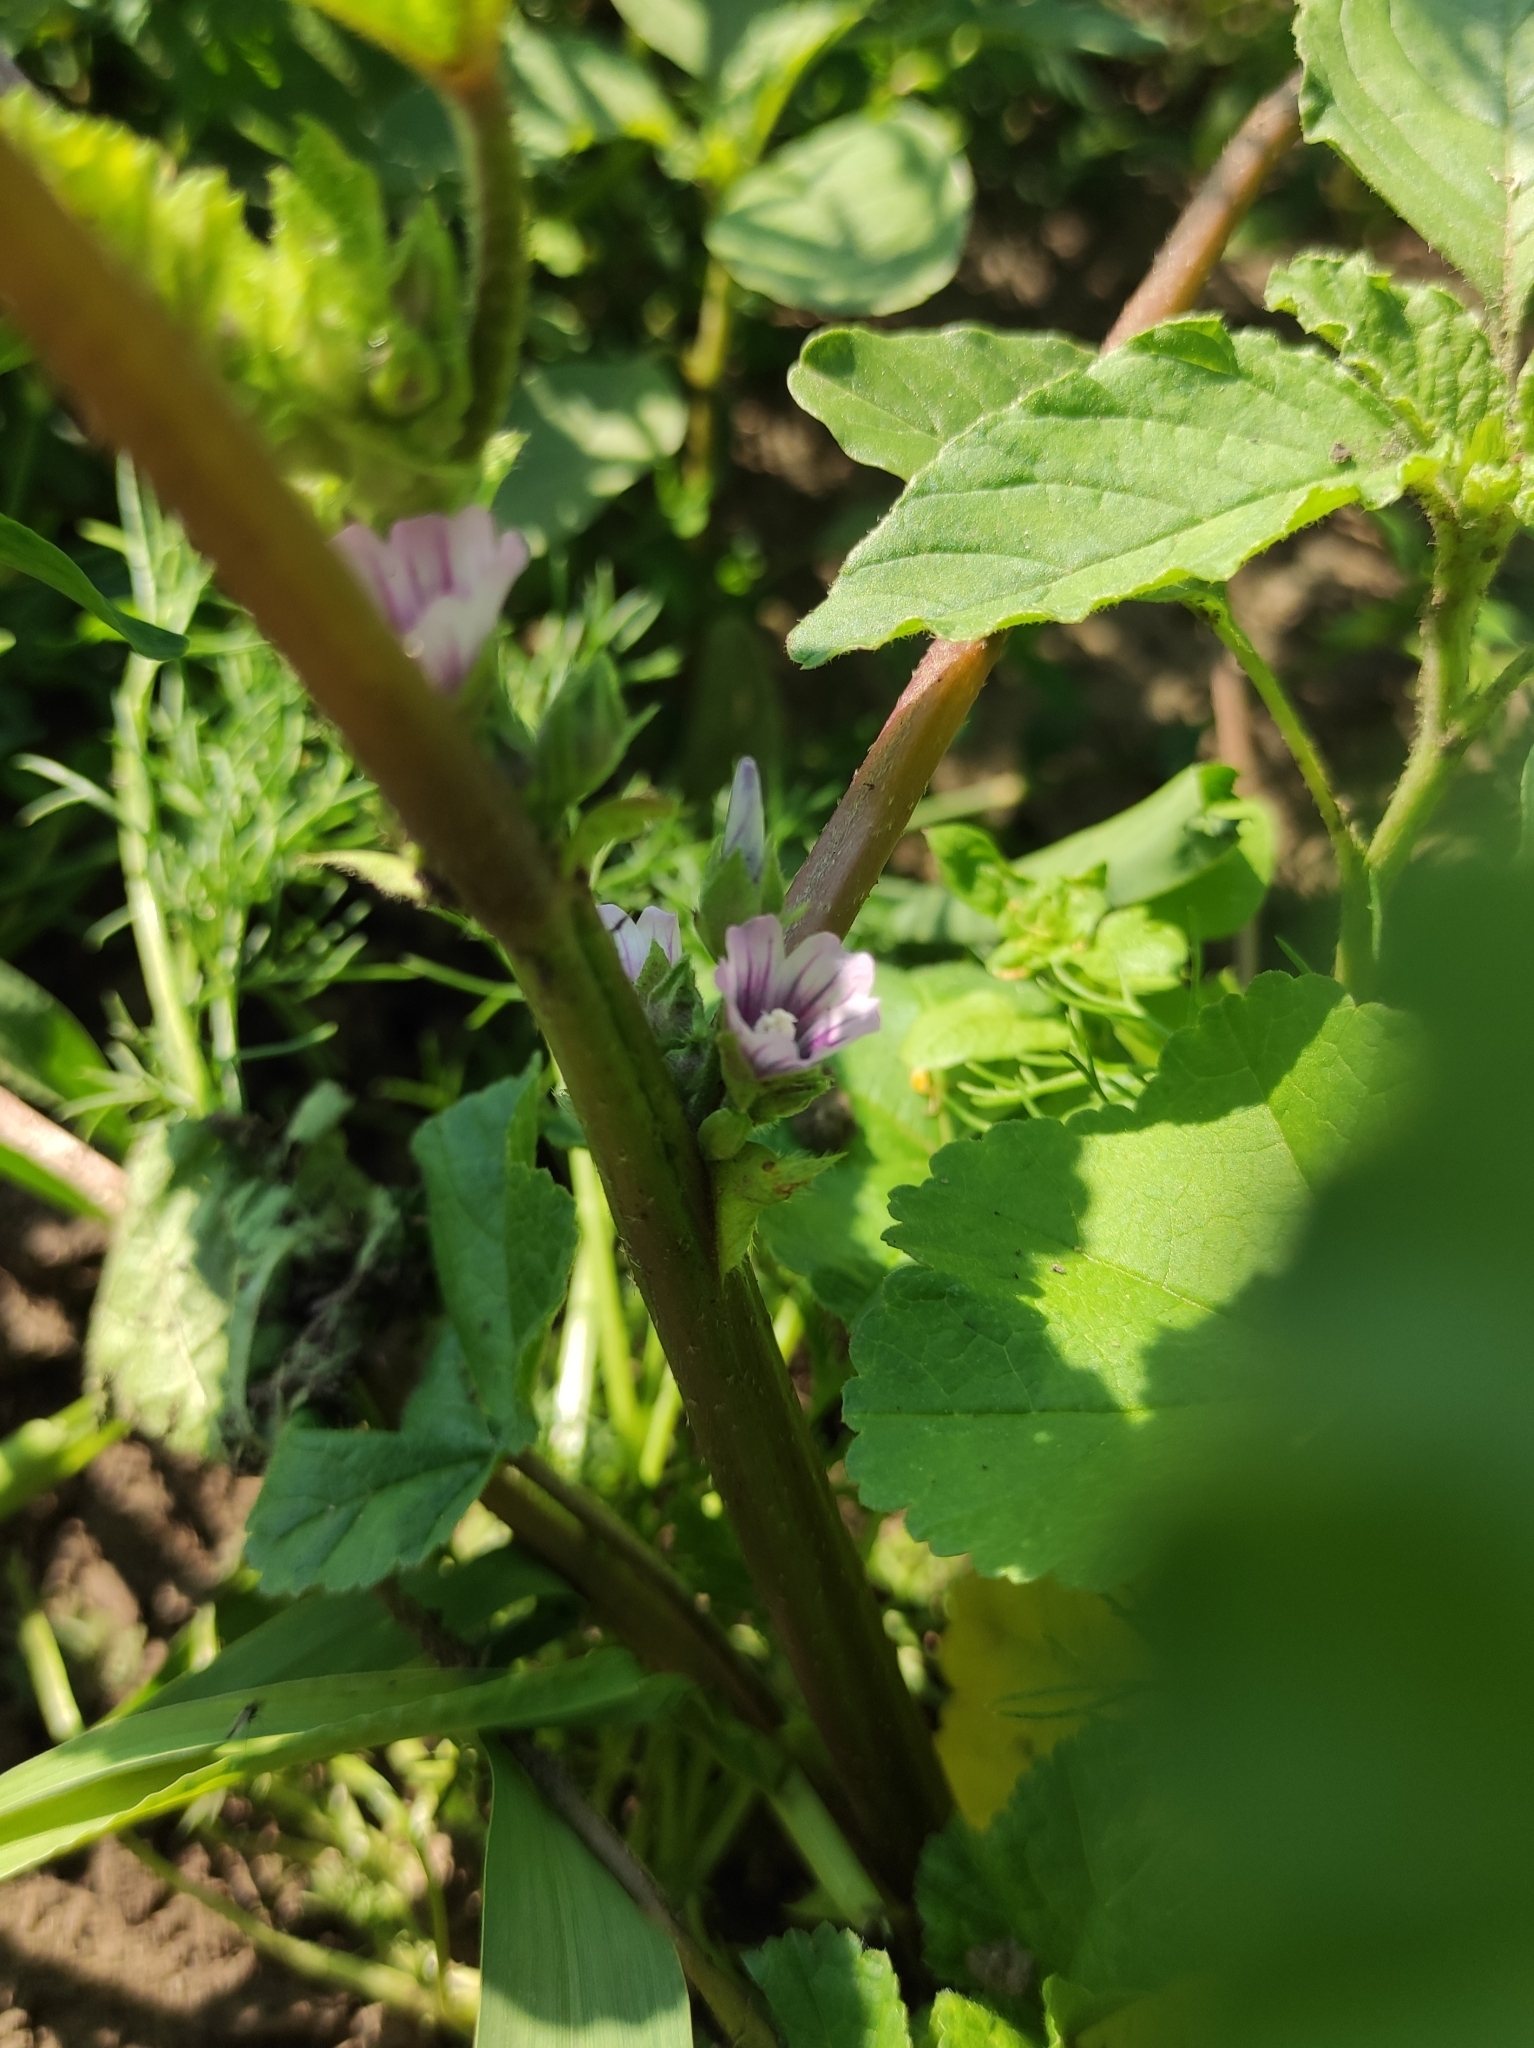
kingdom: Plantae
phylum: Tracheophyta
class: Magnoliopsida
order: Malvales
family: Malvaceae
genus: Malva
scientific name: Malva verticillata
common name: Chinese mallow
